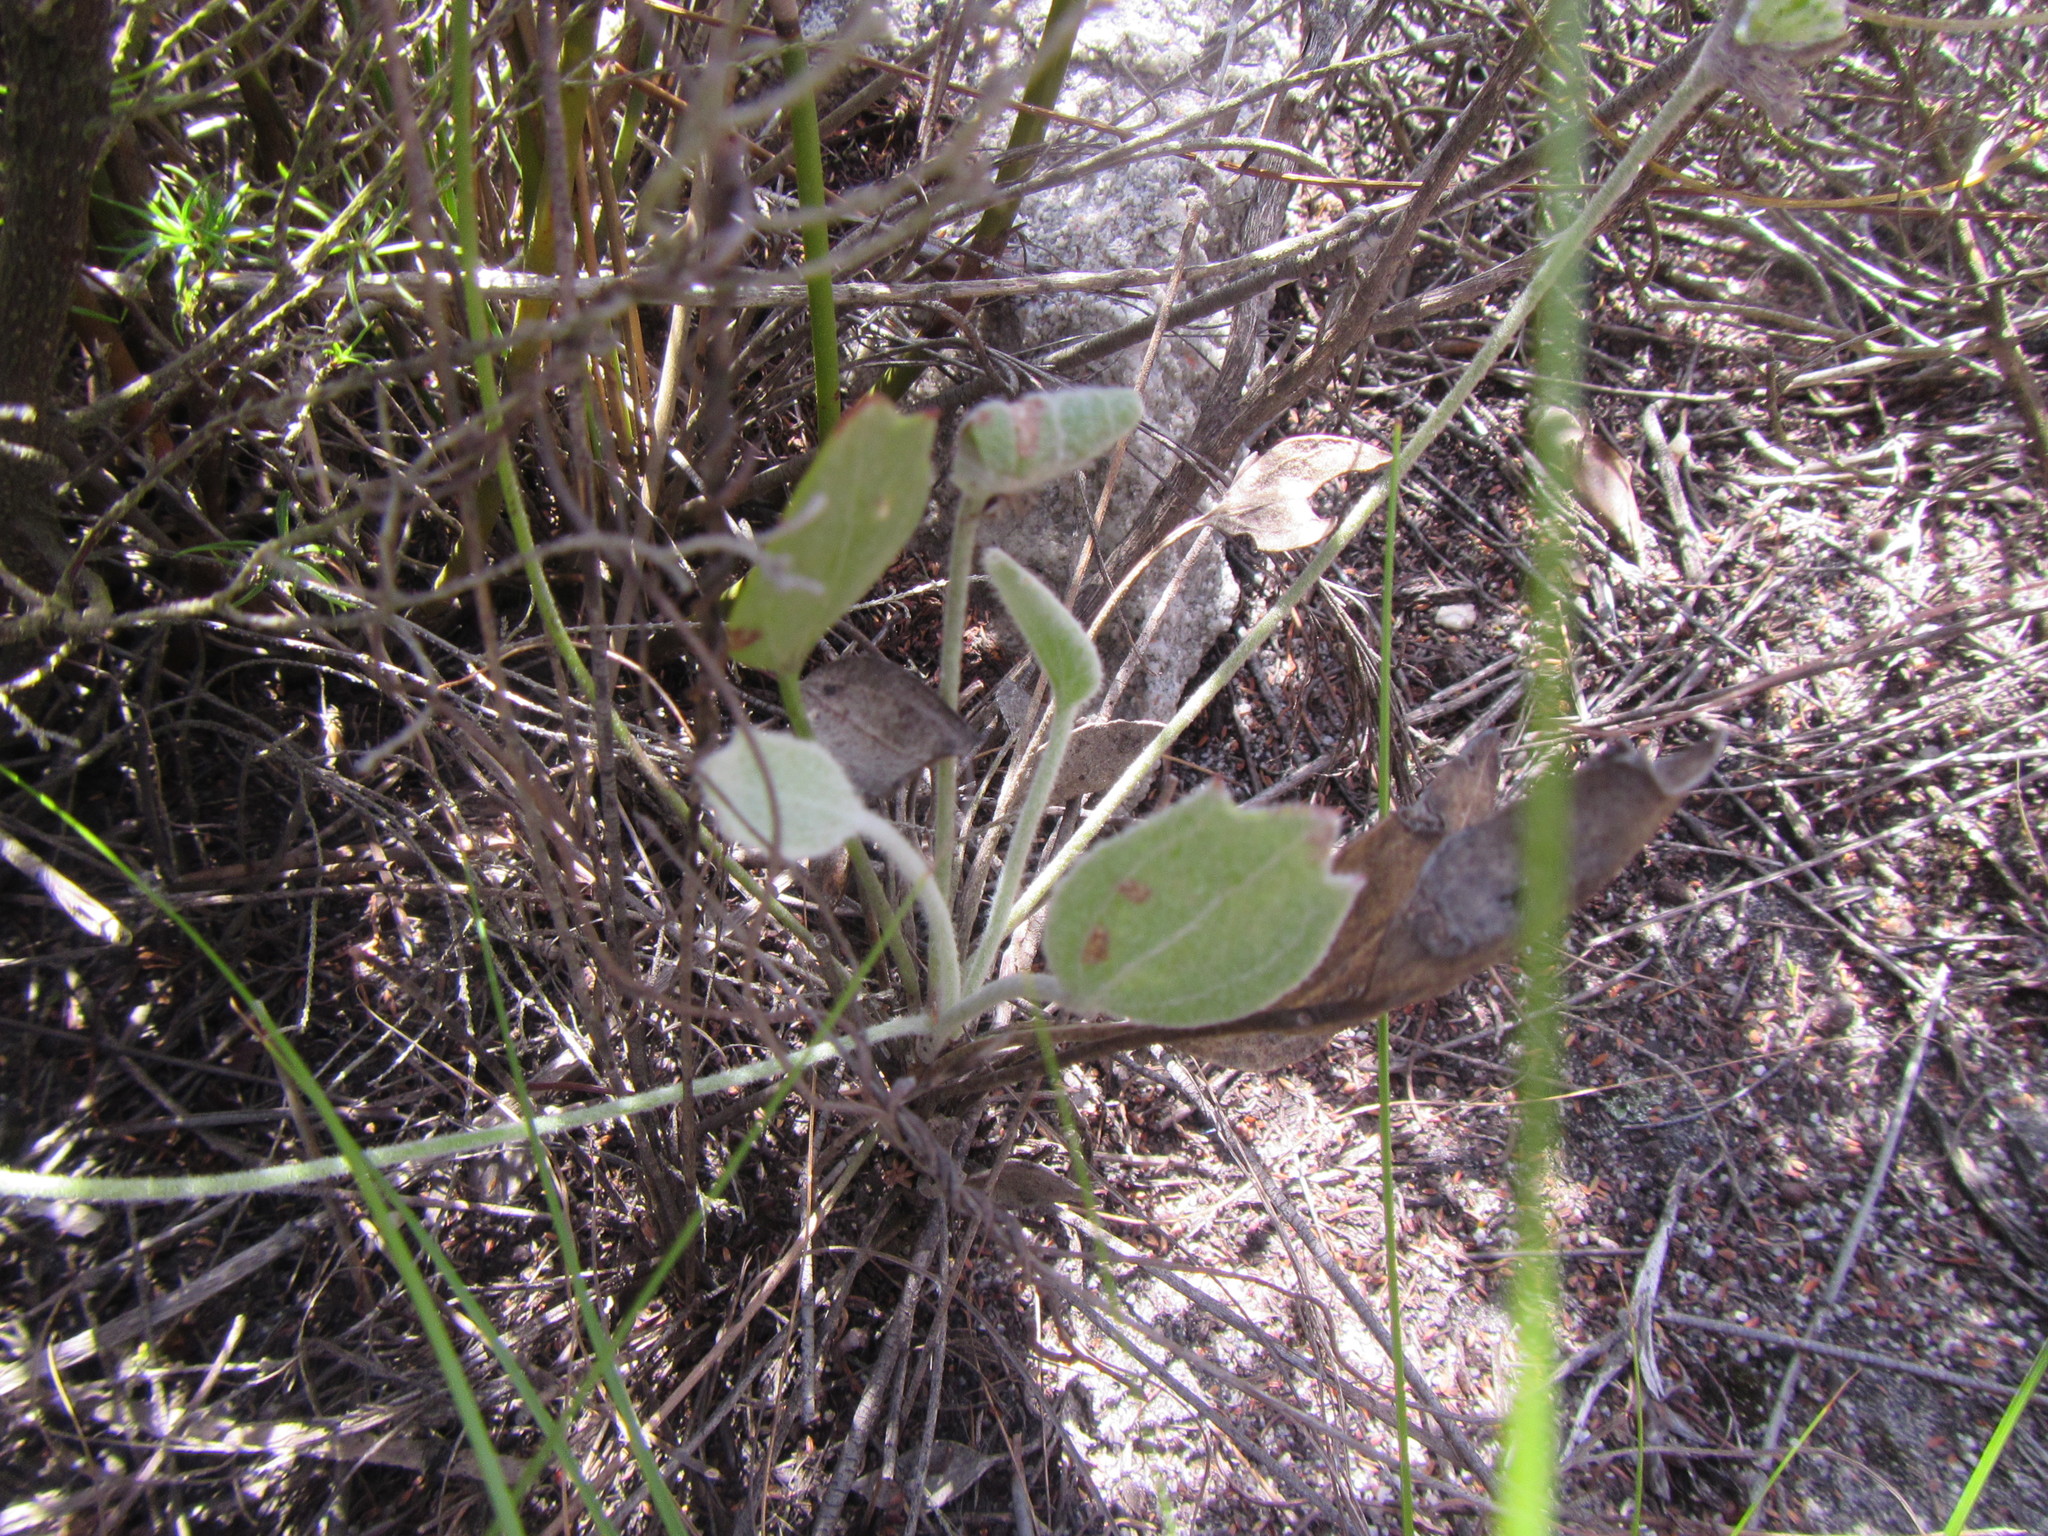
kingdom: Plantae
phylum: Tracheophyta
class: Magnoliopsida
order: Apiales
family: Apiaceae
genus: Centella
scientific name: Centella difformis
